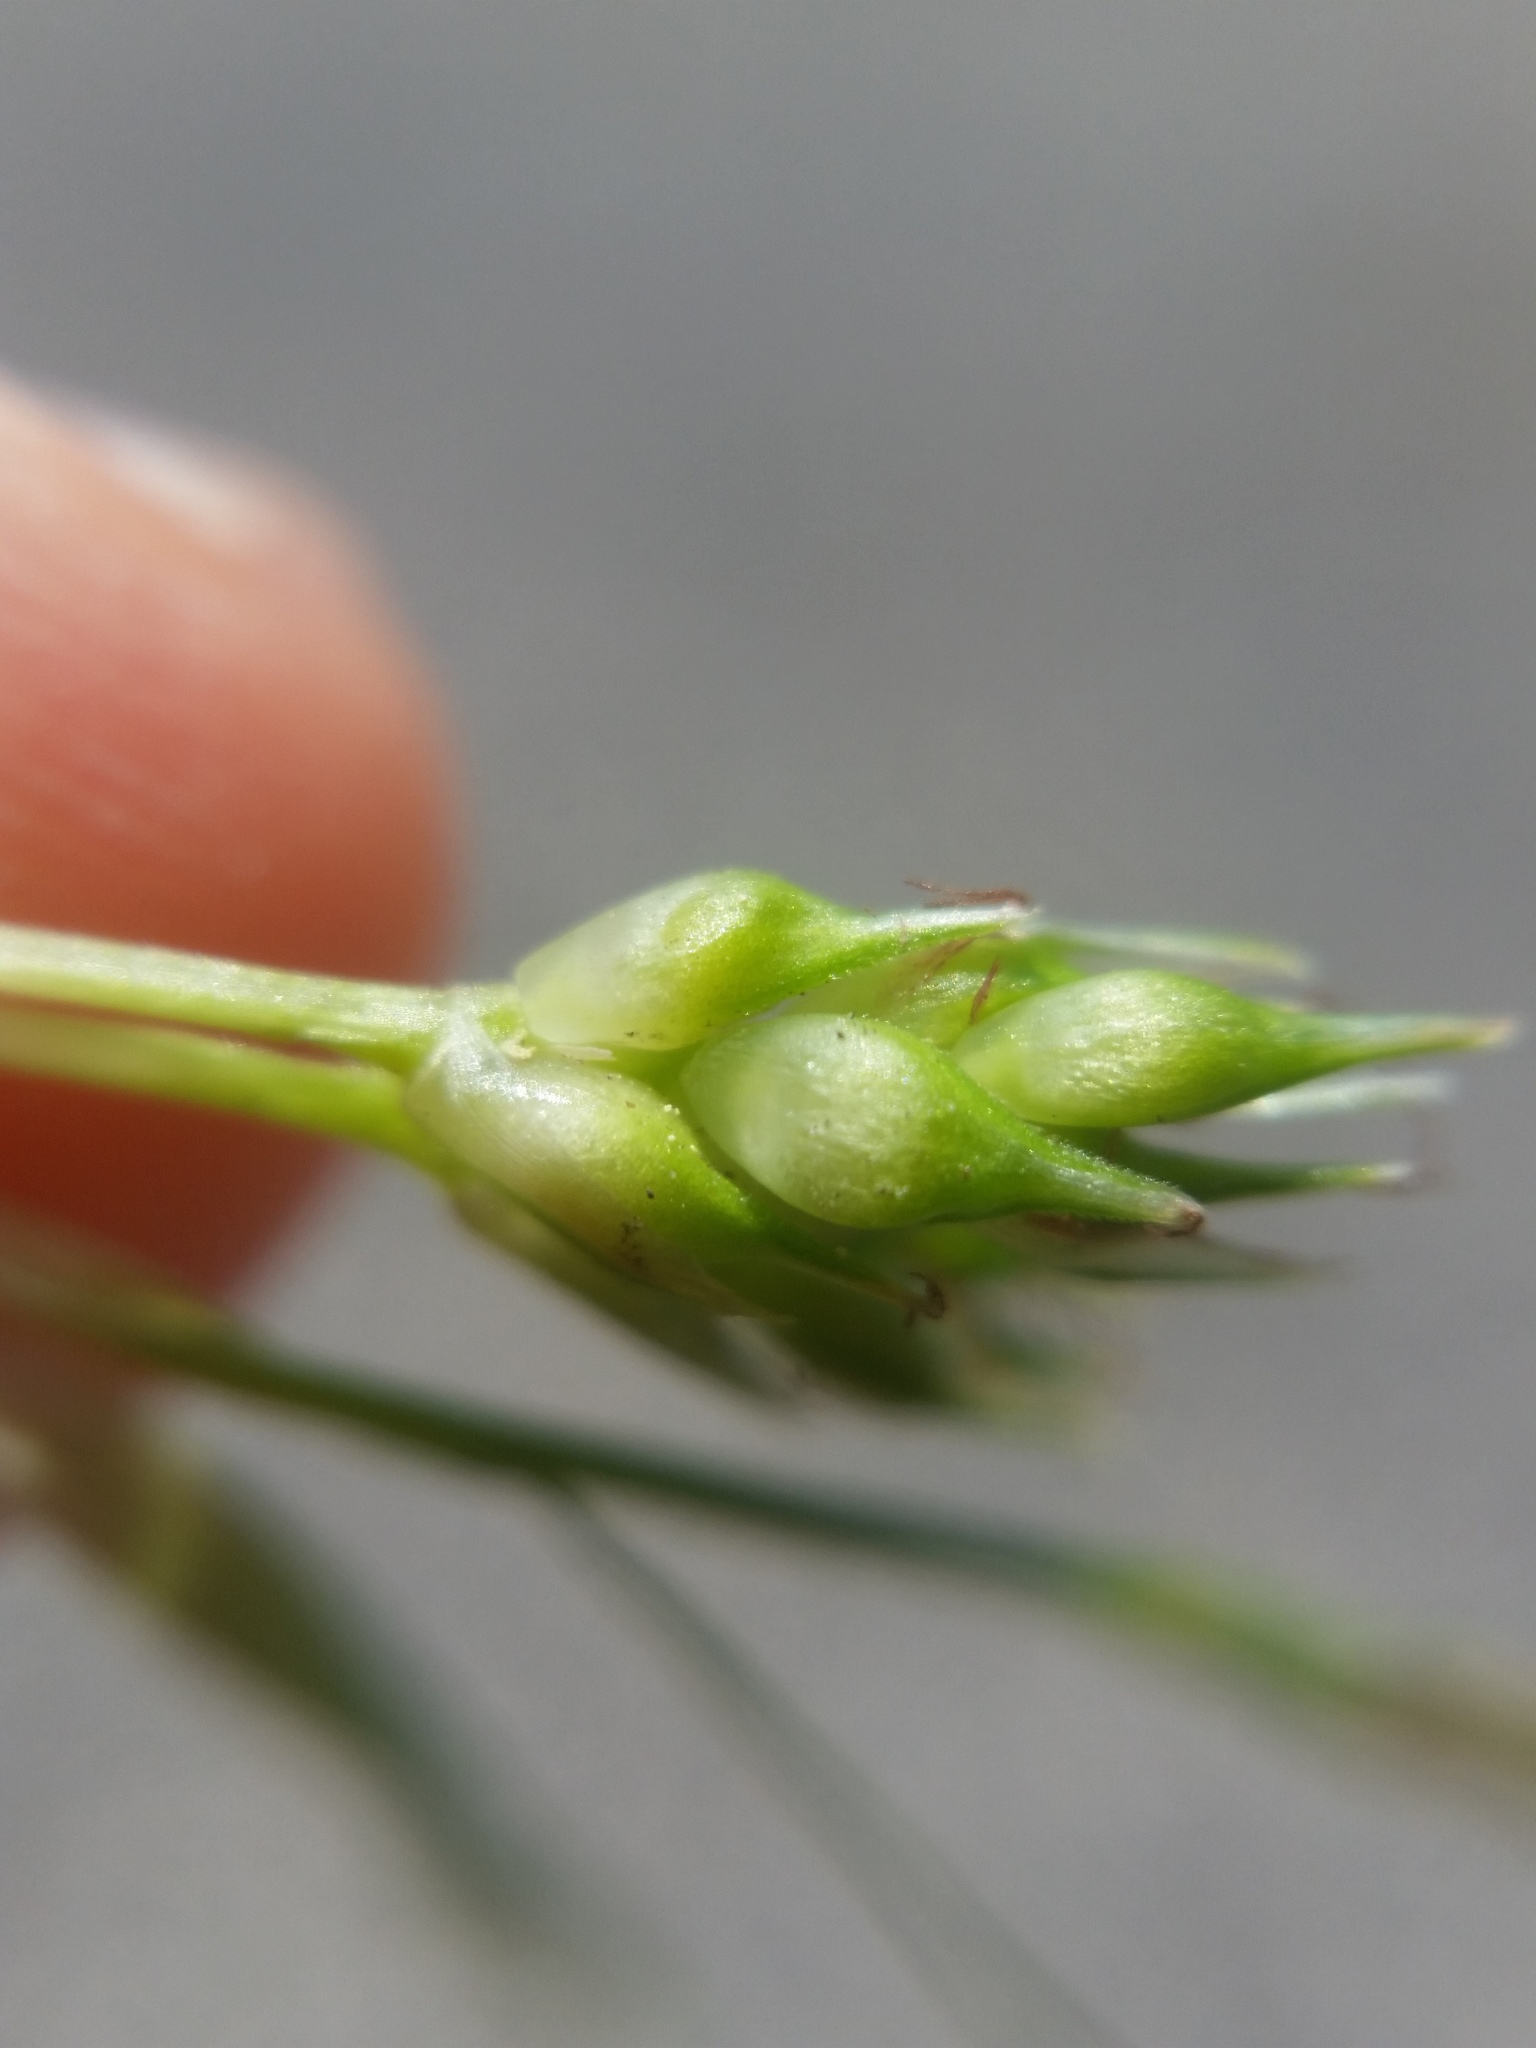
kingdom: Plantae
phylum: Tracheophyta
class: Liliopsida
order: Poales
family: Cyperaceae
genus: Carex
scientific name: Carex tonsa
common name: Bald sedge
